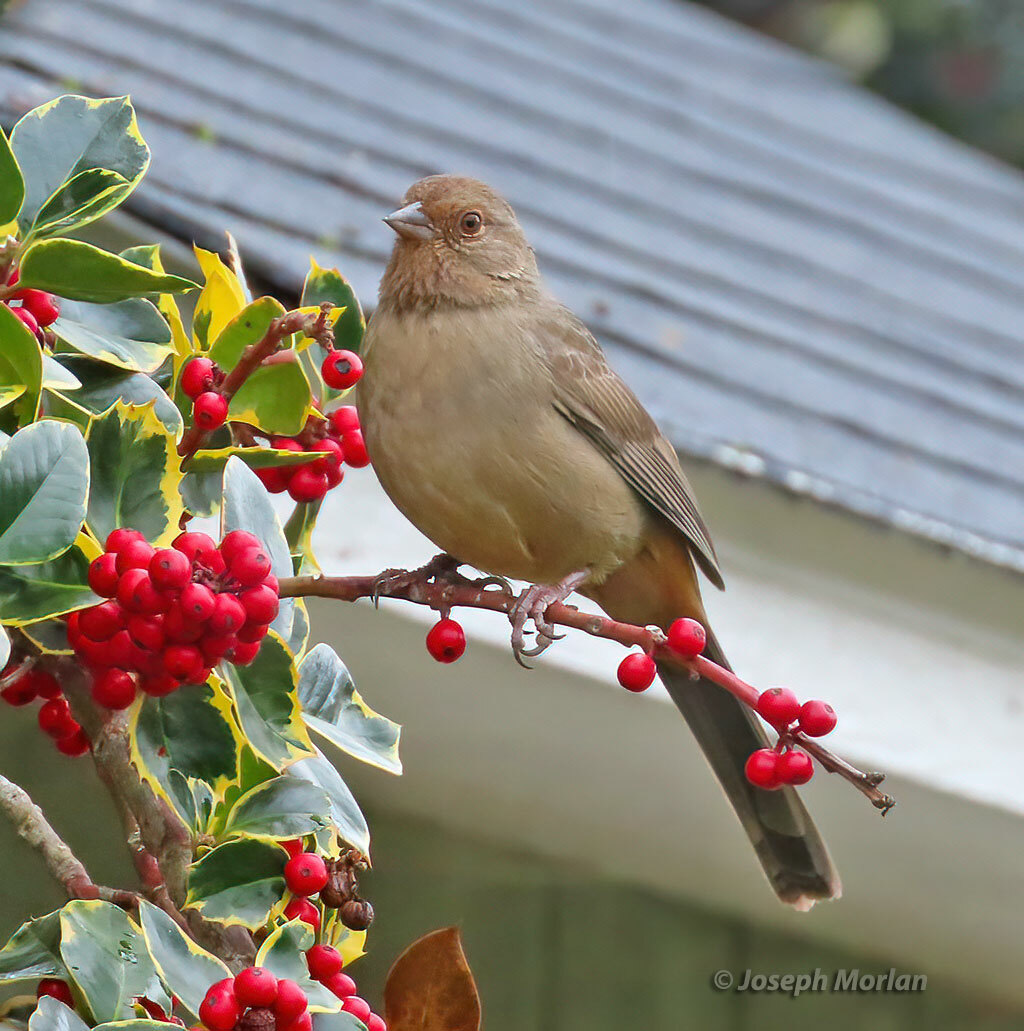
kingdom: Animalia
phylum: Chordata
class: Aves
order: Passeriformes
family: Passerellidae
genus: Melozone
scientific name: Melozone crissalis
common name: California towhee
